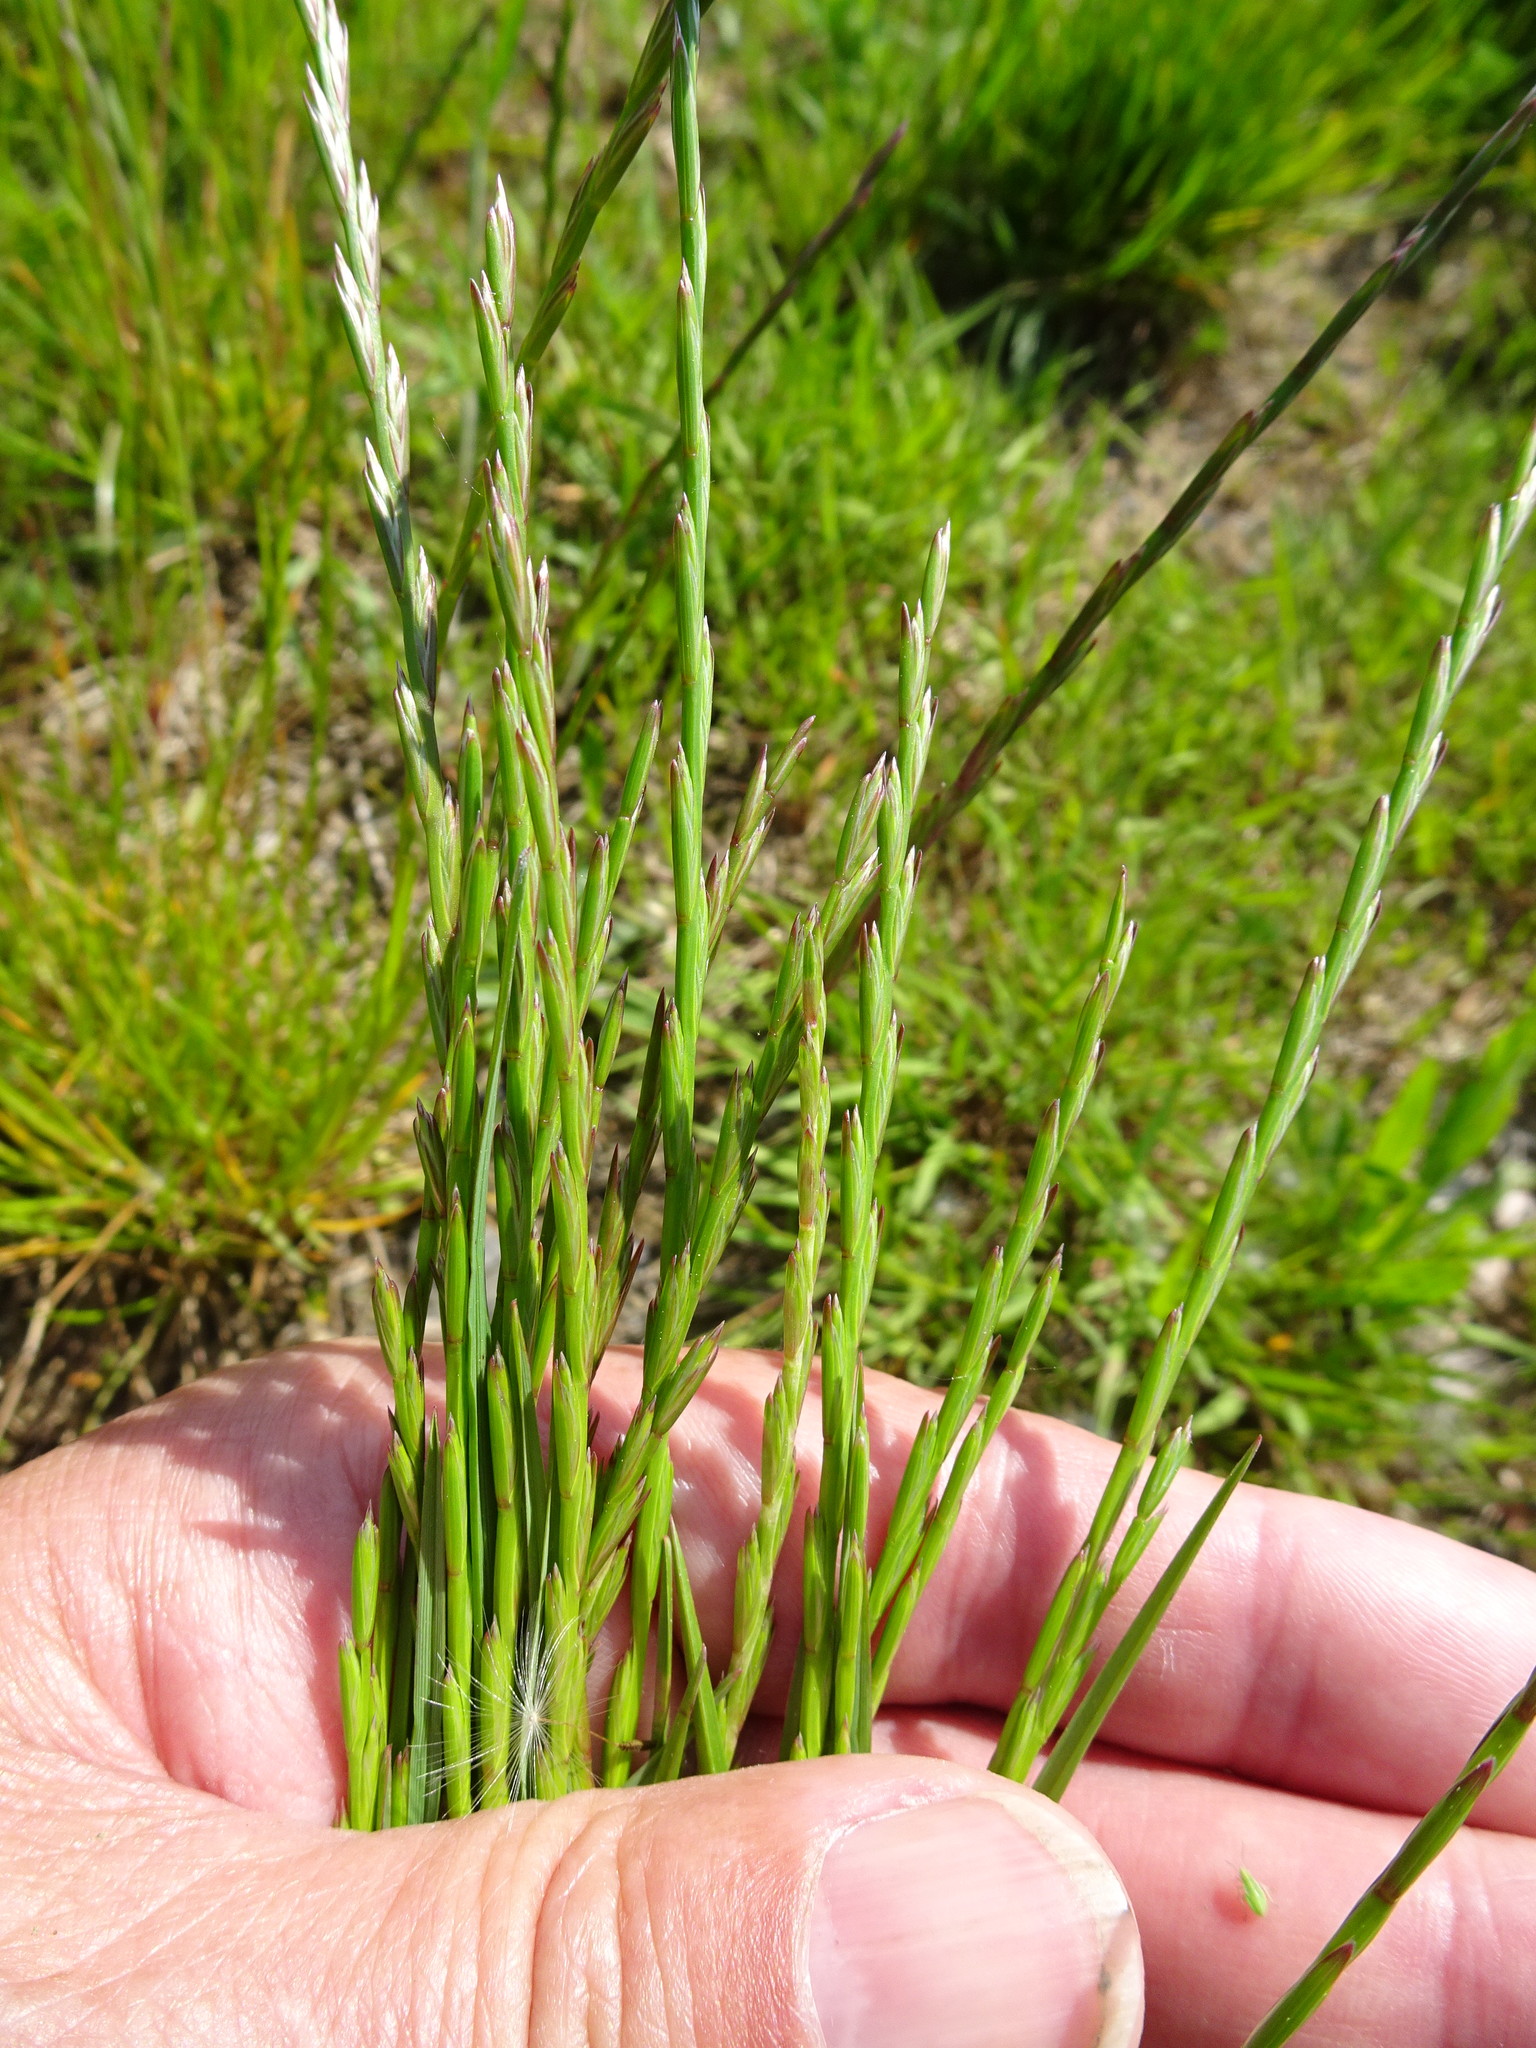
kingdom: Plantae
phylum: Tracheophyta
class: Liliopsida
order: Poales
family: Poaceae
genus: Lolium
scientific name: Lolium perenne
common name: Perennial ryegrass
